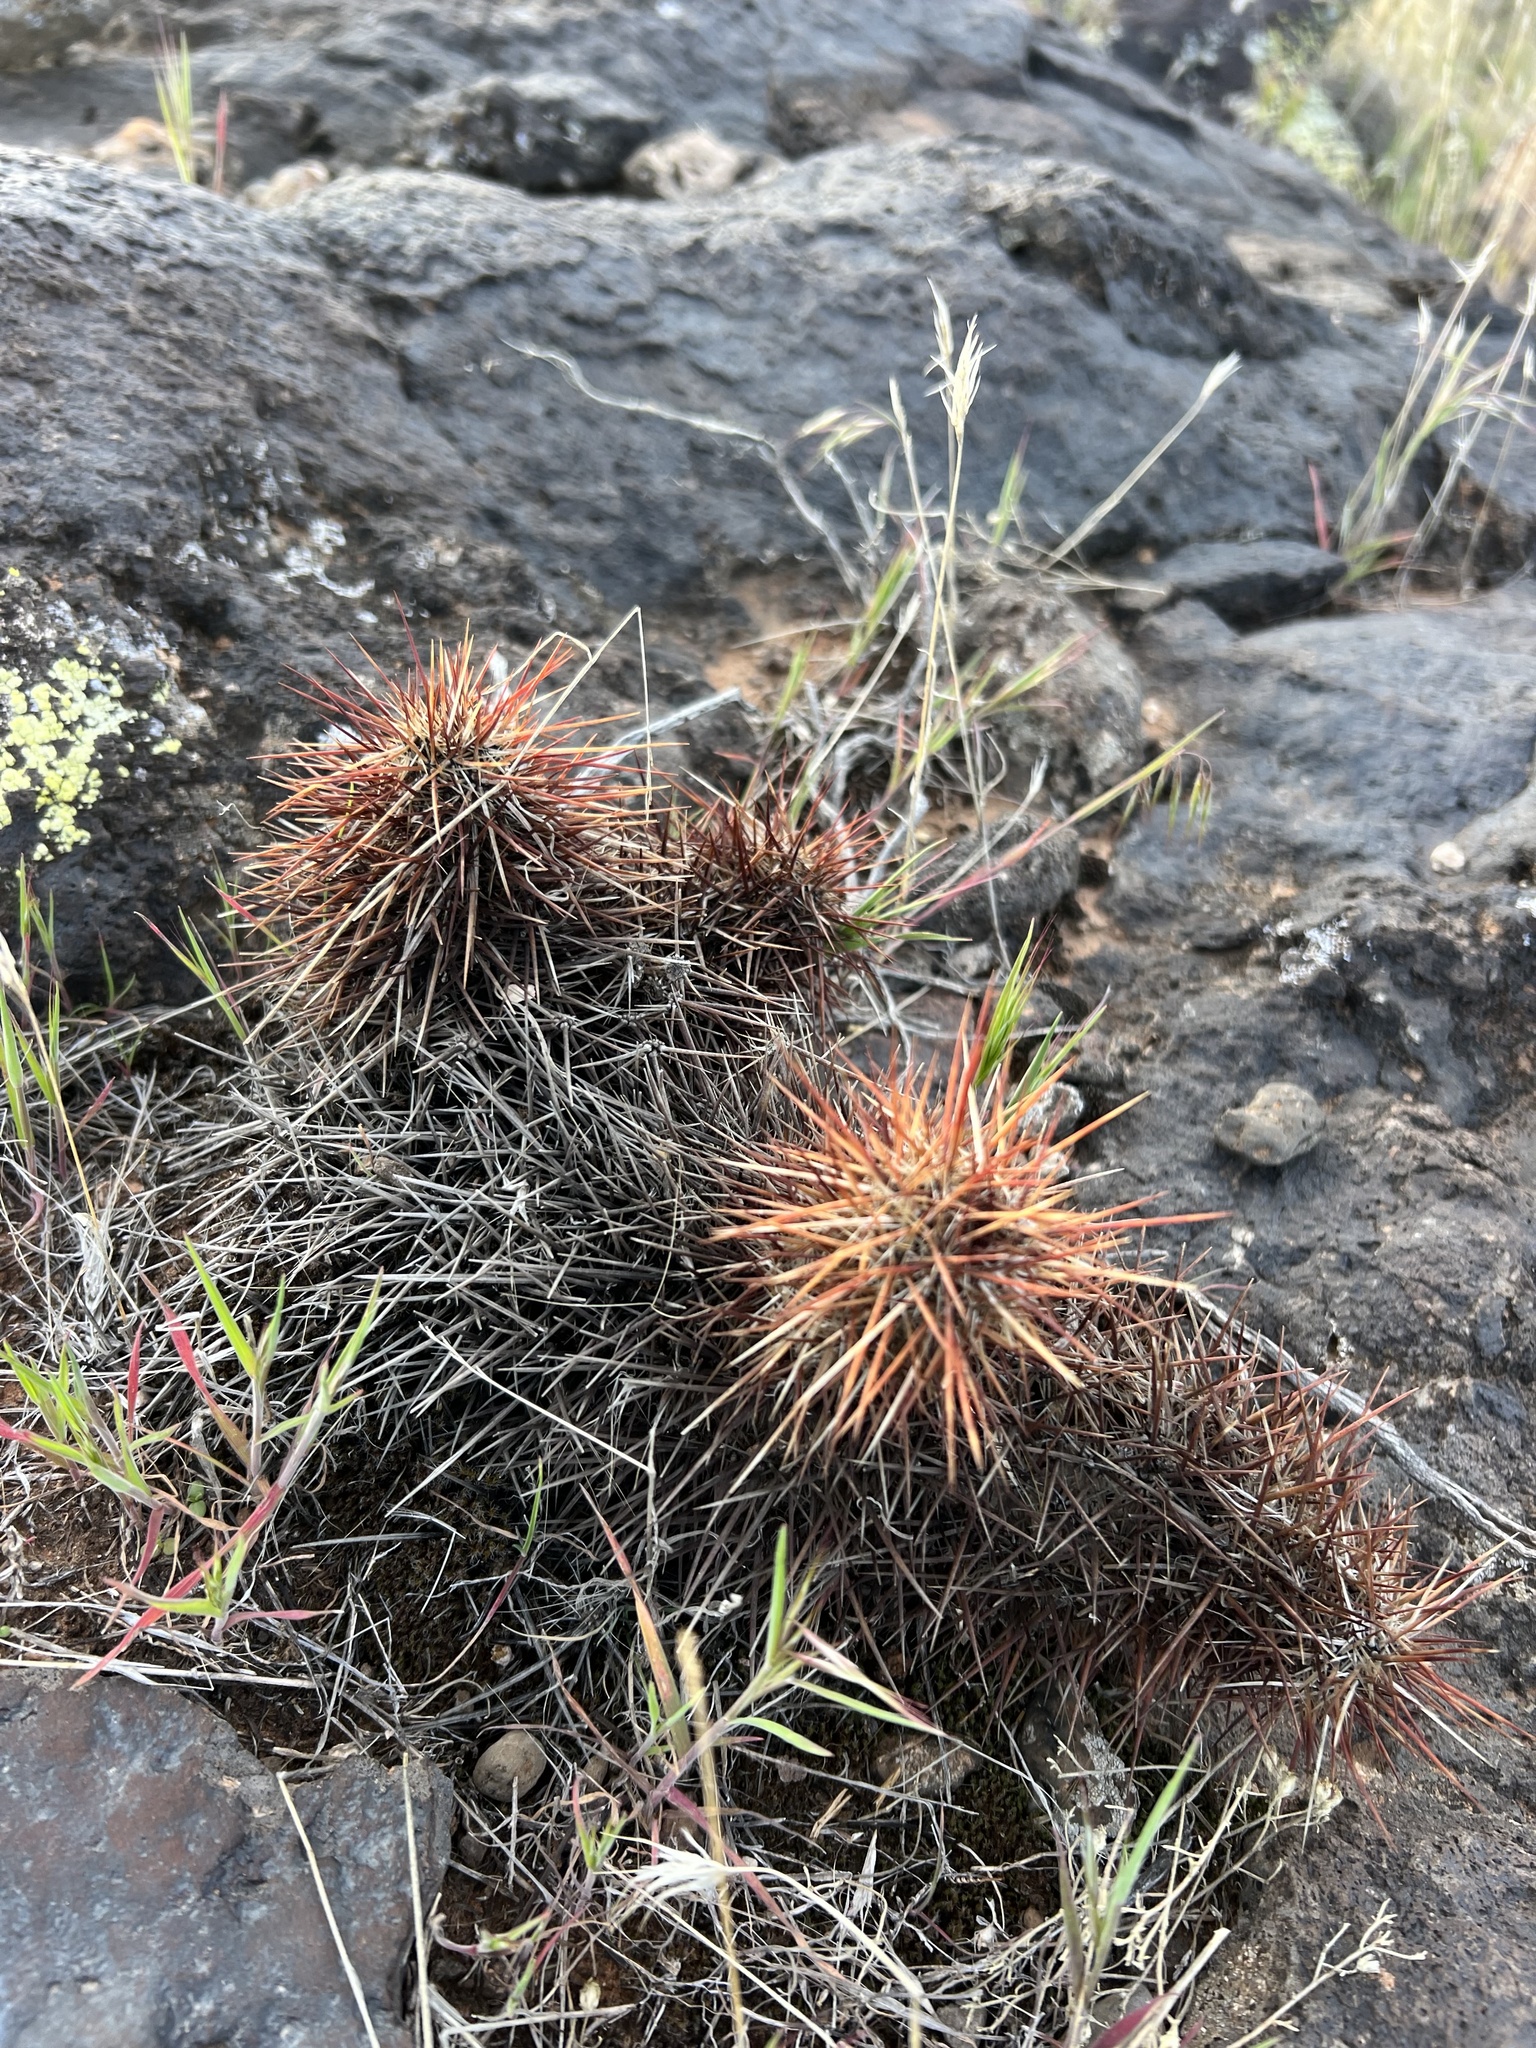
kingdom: Plantae
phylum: Tracheophyta
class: Magnoliopsida
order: Caryophyllales
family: Cactaceae
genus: Echinocereus
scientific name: Echinocereus relictus
